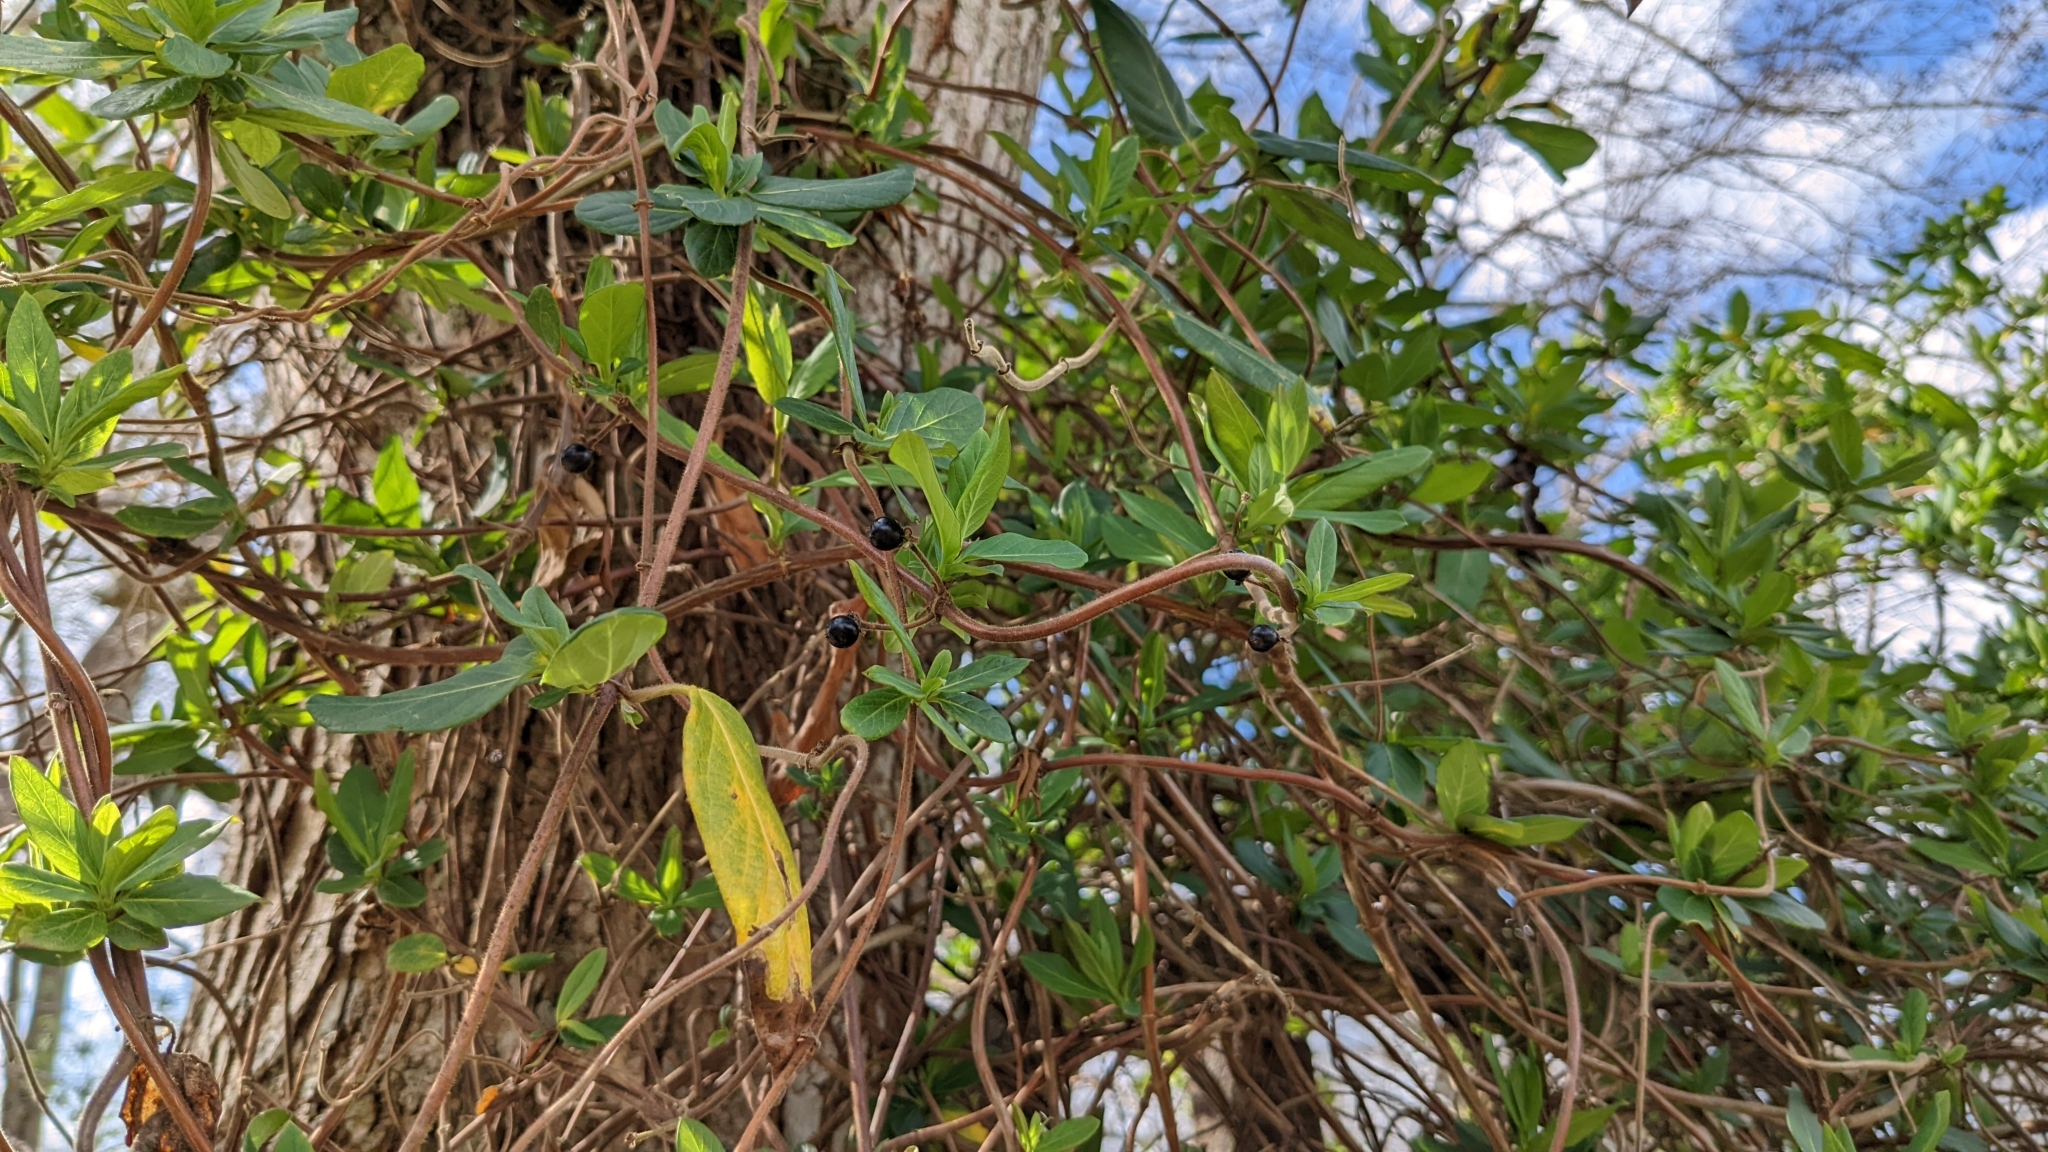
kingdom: Plantae
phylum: Tracheophyta
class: Magnoliopsida
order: Dipsacales
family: Caprifoliaceae
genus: Lonicera
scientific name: Lonicera japonica
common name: Japanese honeysuckle
